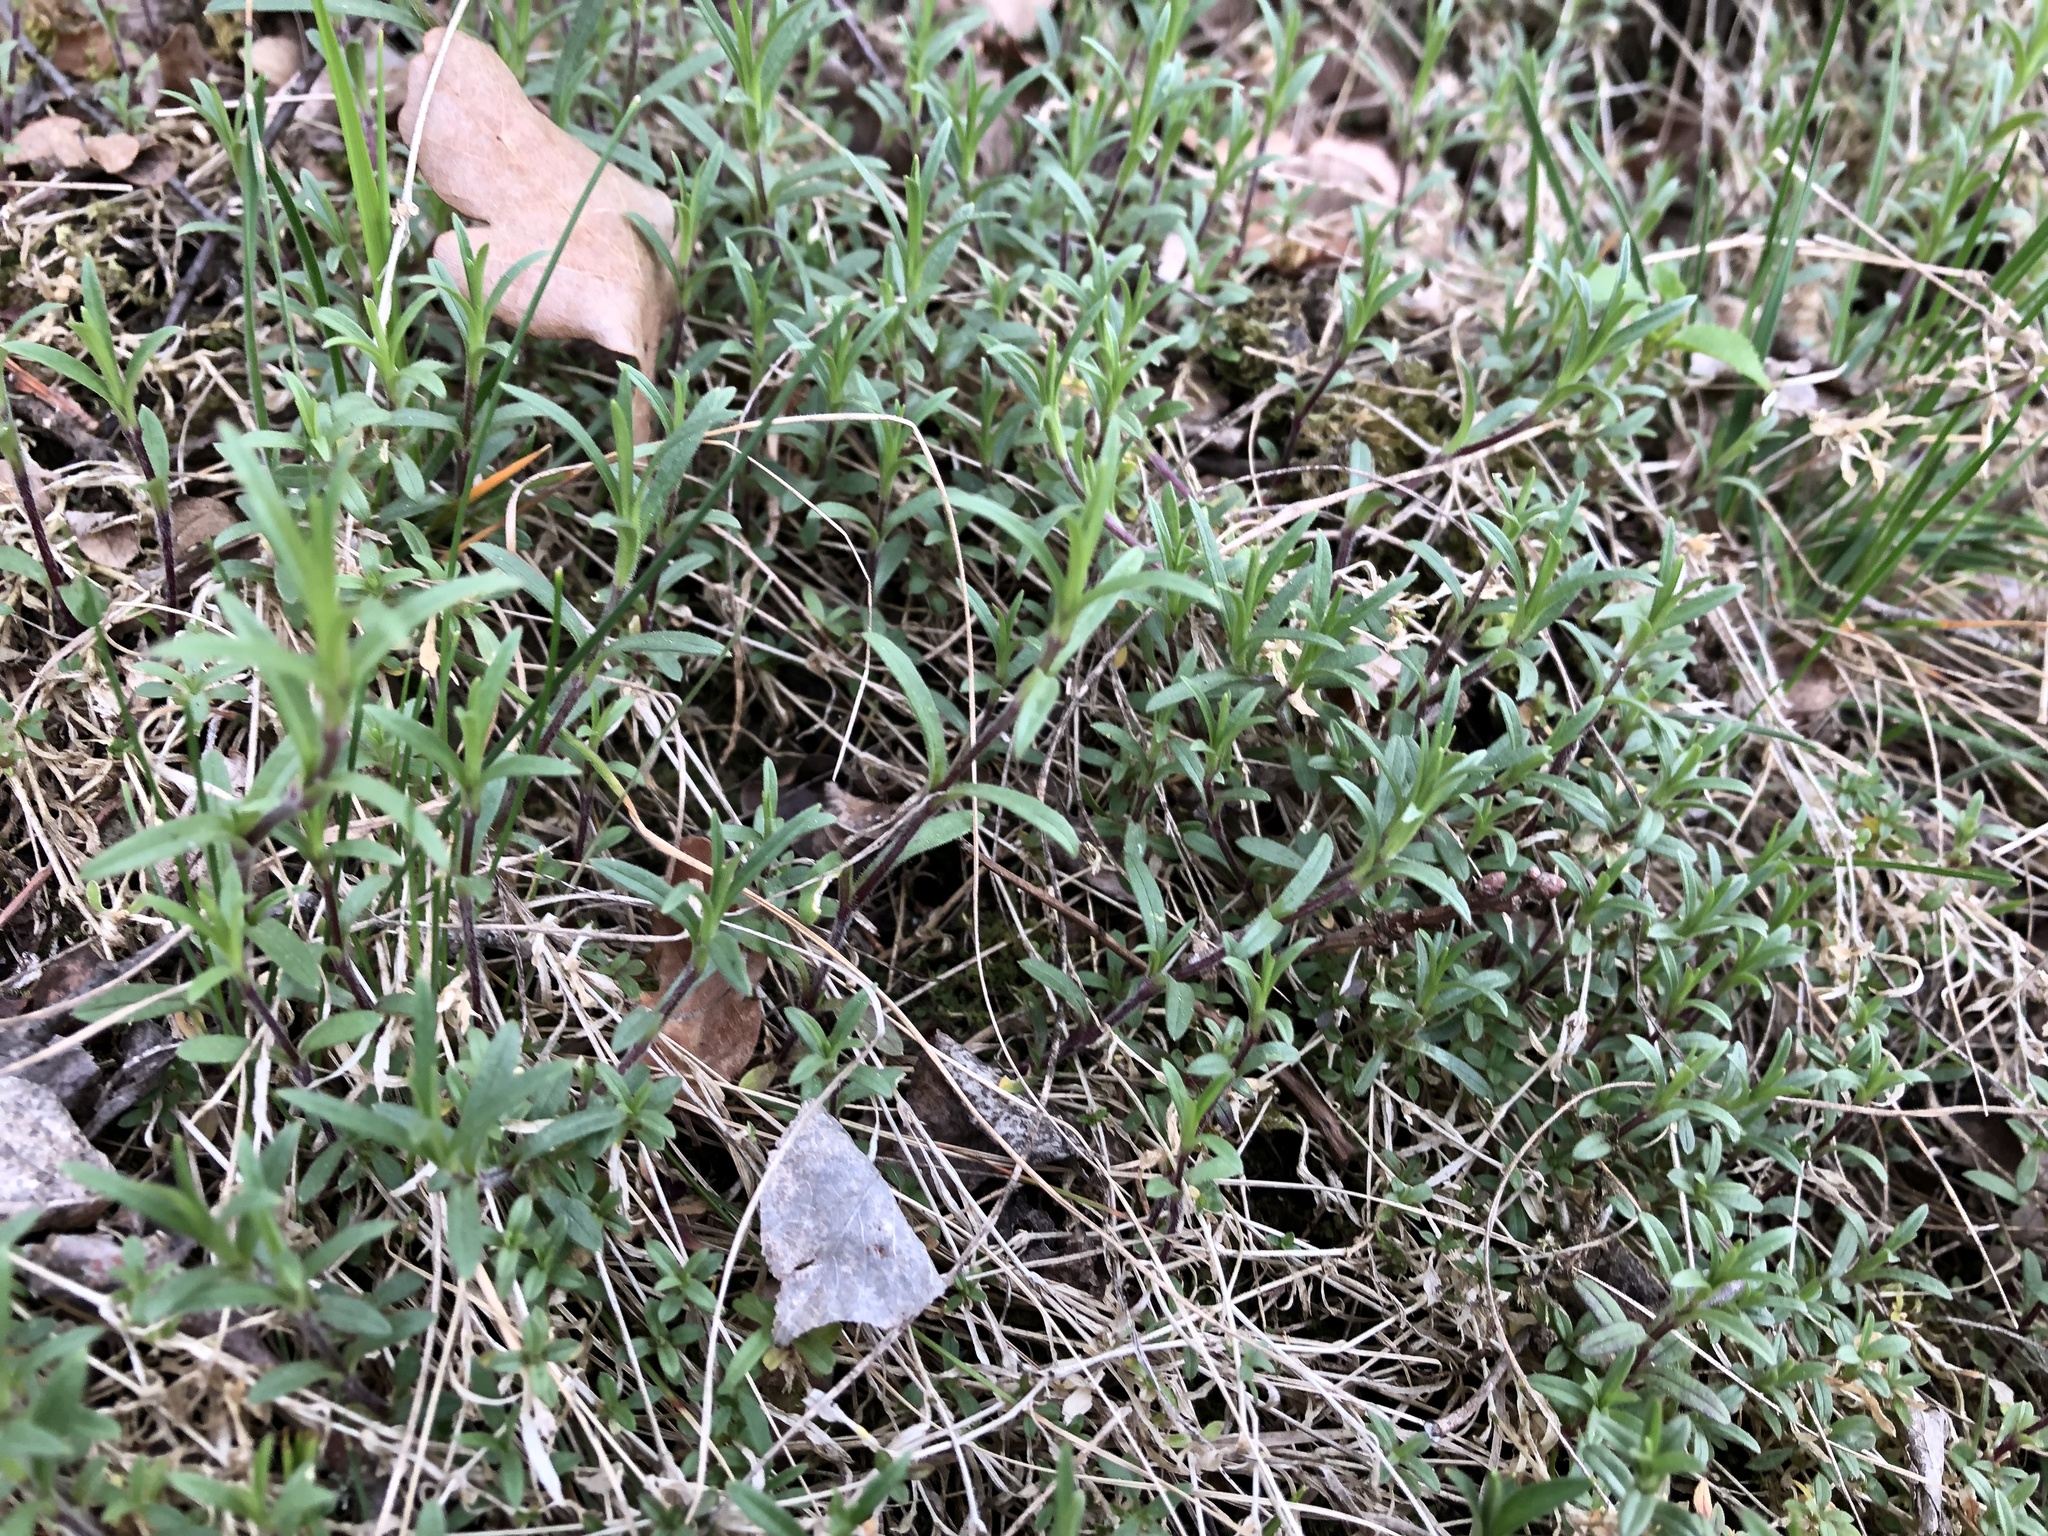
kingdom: Plantae
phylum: Tracheophyta
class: Magnoliopsida
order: Caryophyllales
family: Caryophyllaceae
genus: Cerastium
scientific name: Cerastium arvense
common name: Field mouse-ear
